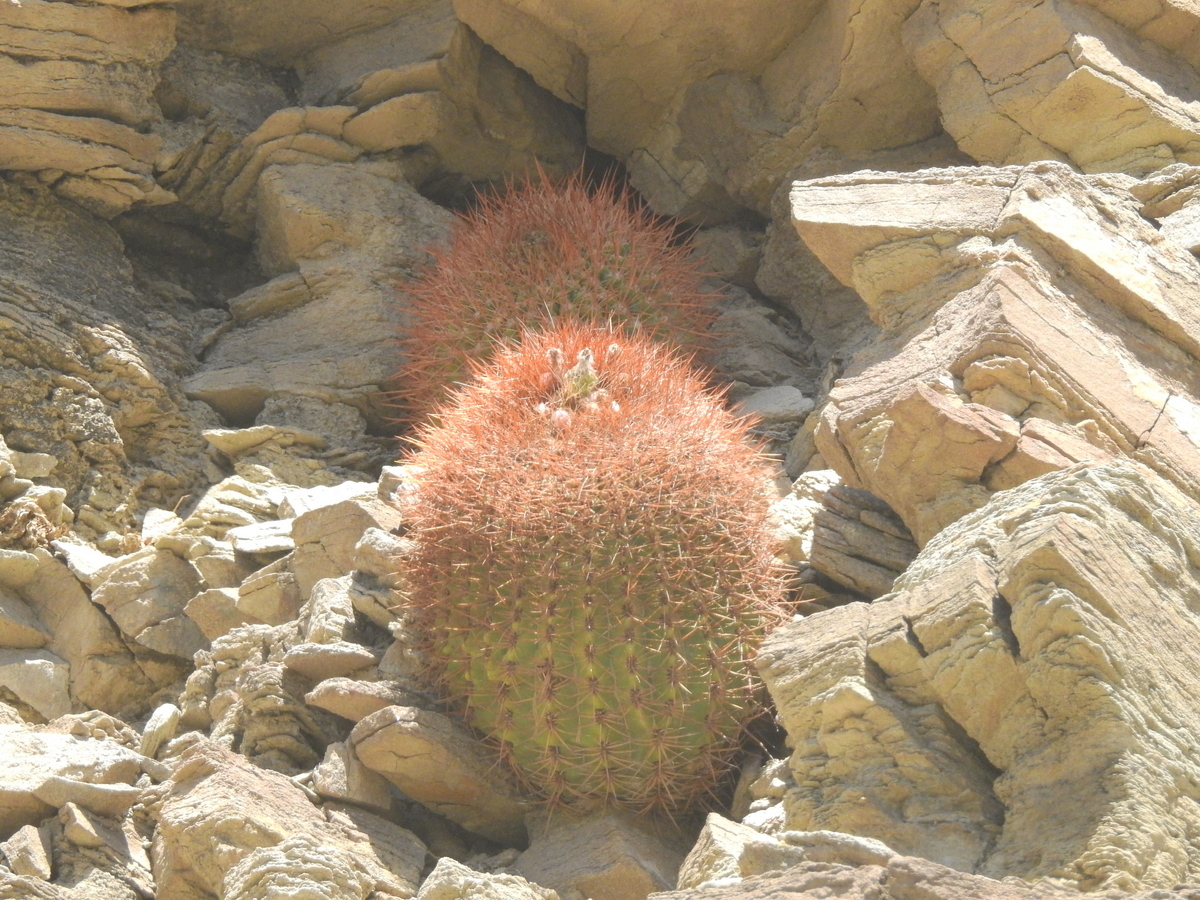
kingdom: Plantae
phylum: Tracheophyta
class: Magnoliopsida
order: Caryophyllales
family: Cactaceae
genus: Denmoza
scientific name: Denmoza rhodacantha
